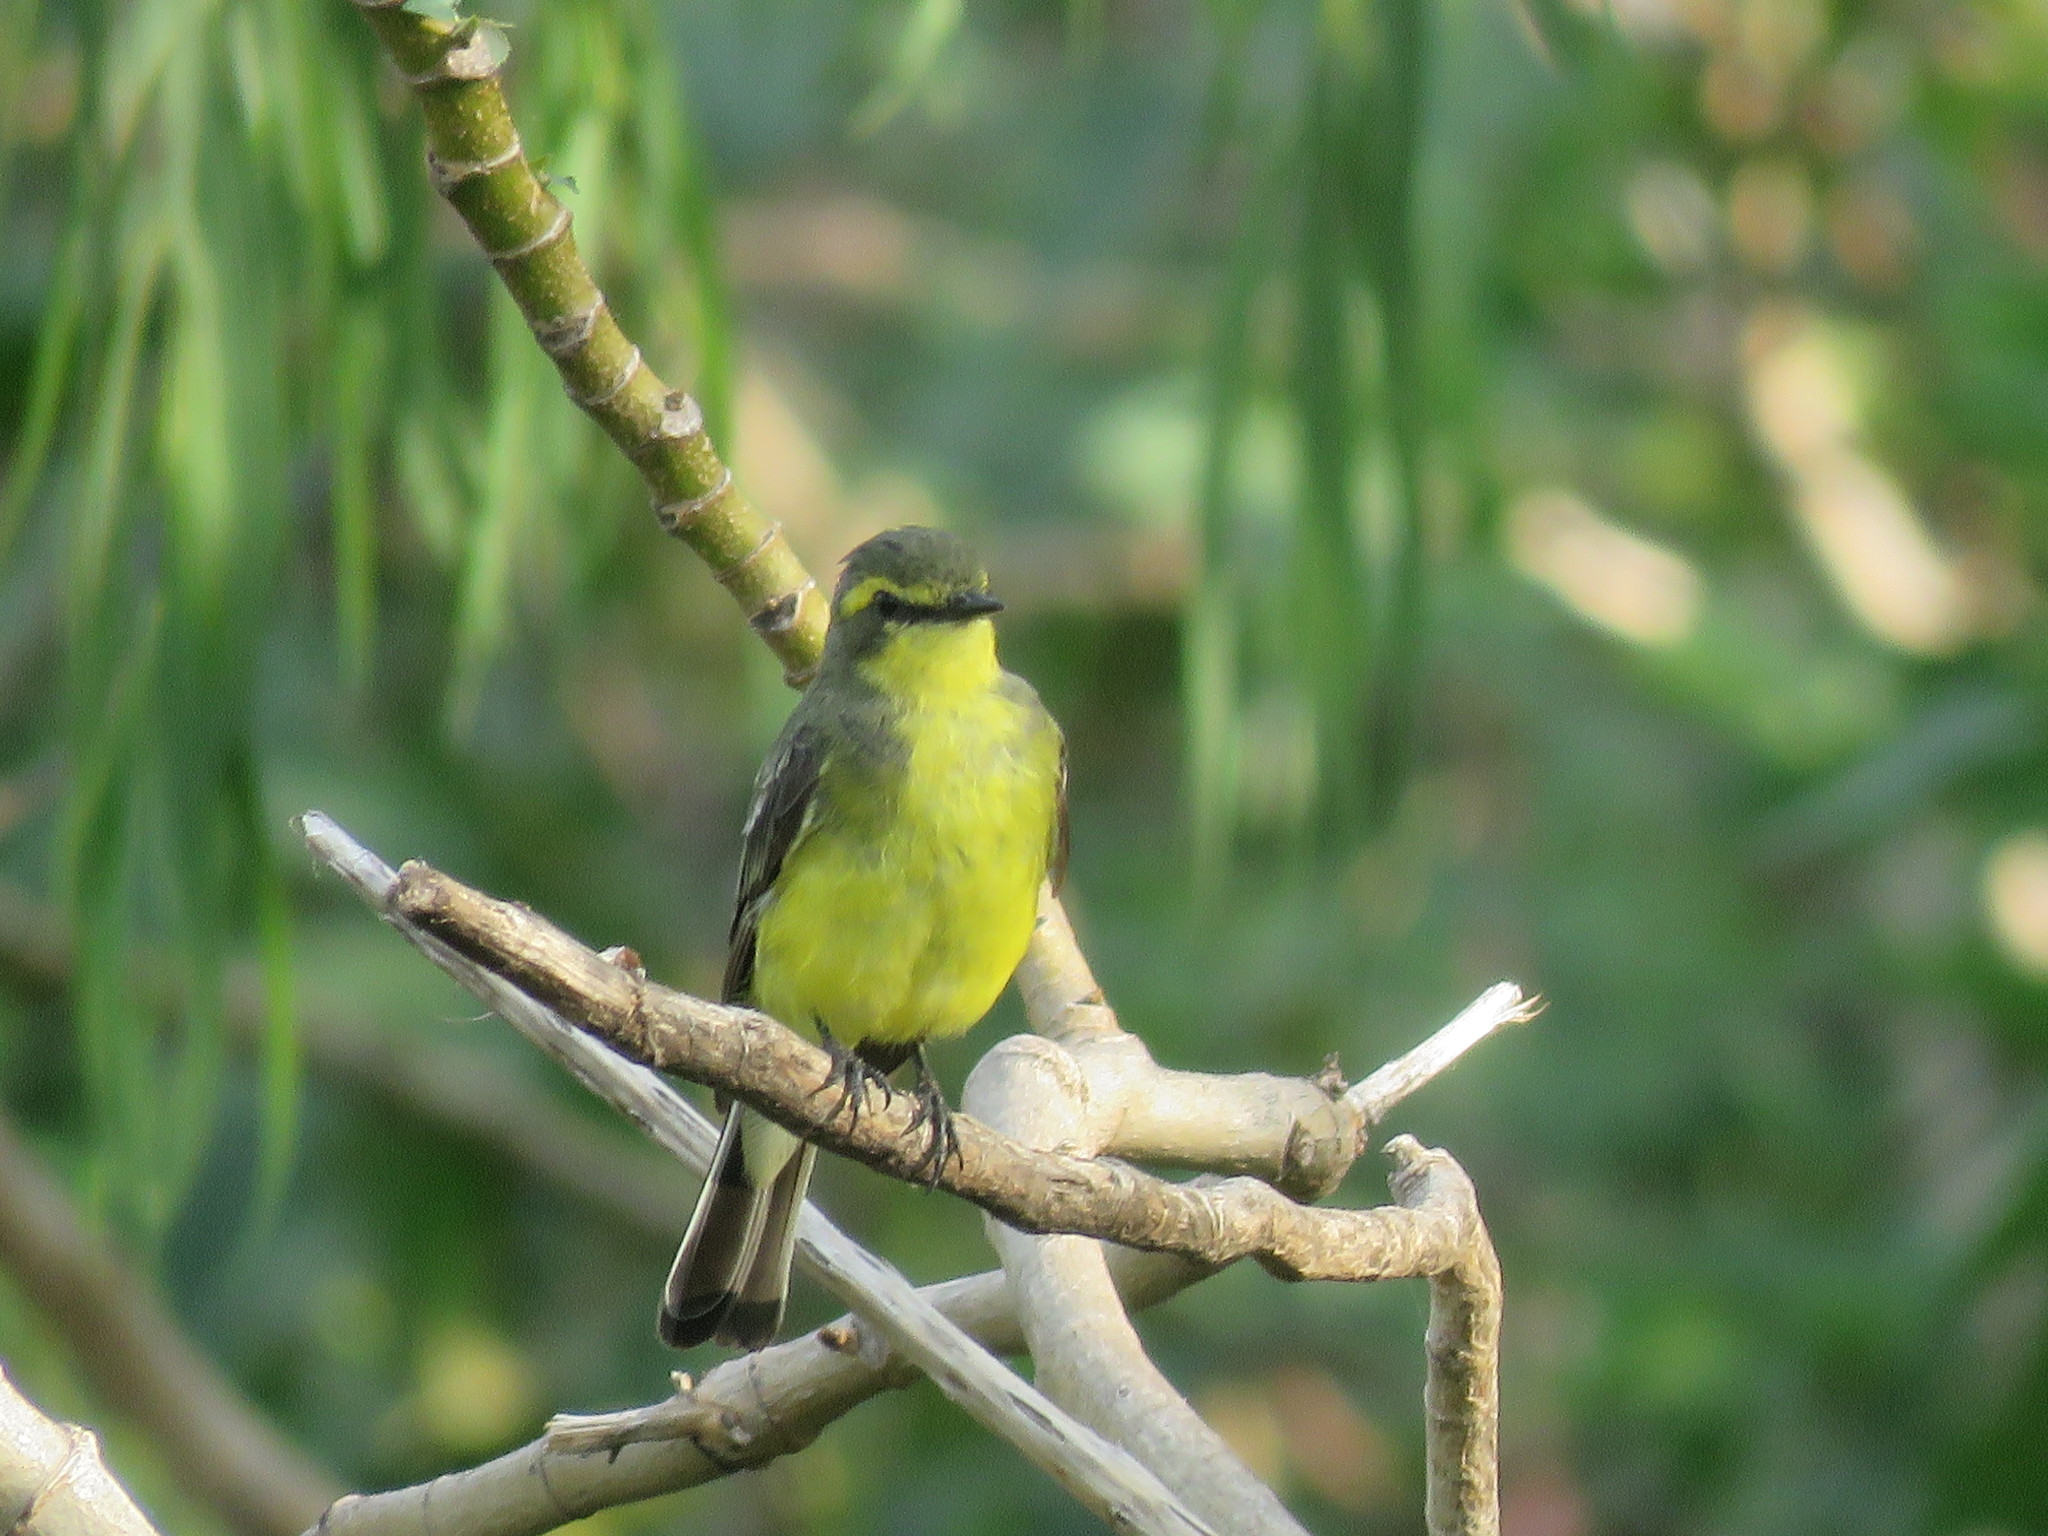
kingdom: Animalia
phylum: Chordata
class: Aves
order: Passeriformes
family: Tyrannidae
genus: Satrapa
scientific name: Satrapa icterophrys
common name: Yellow-browed tyrant
